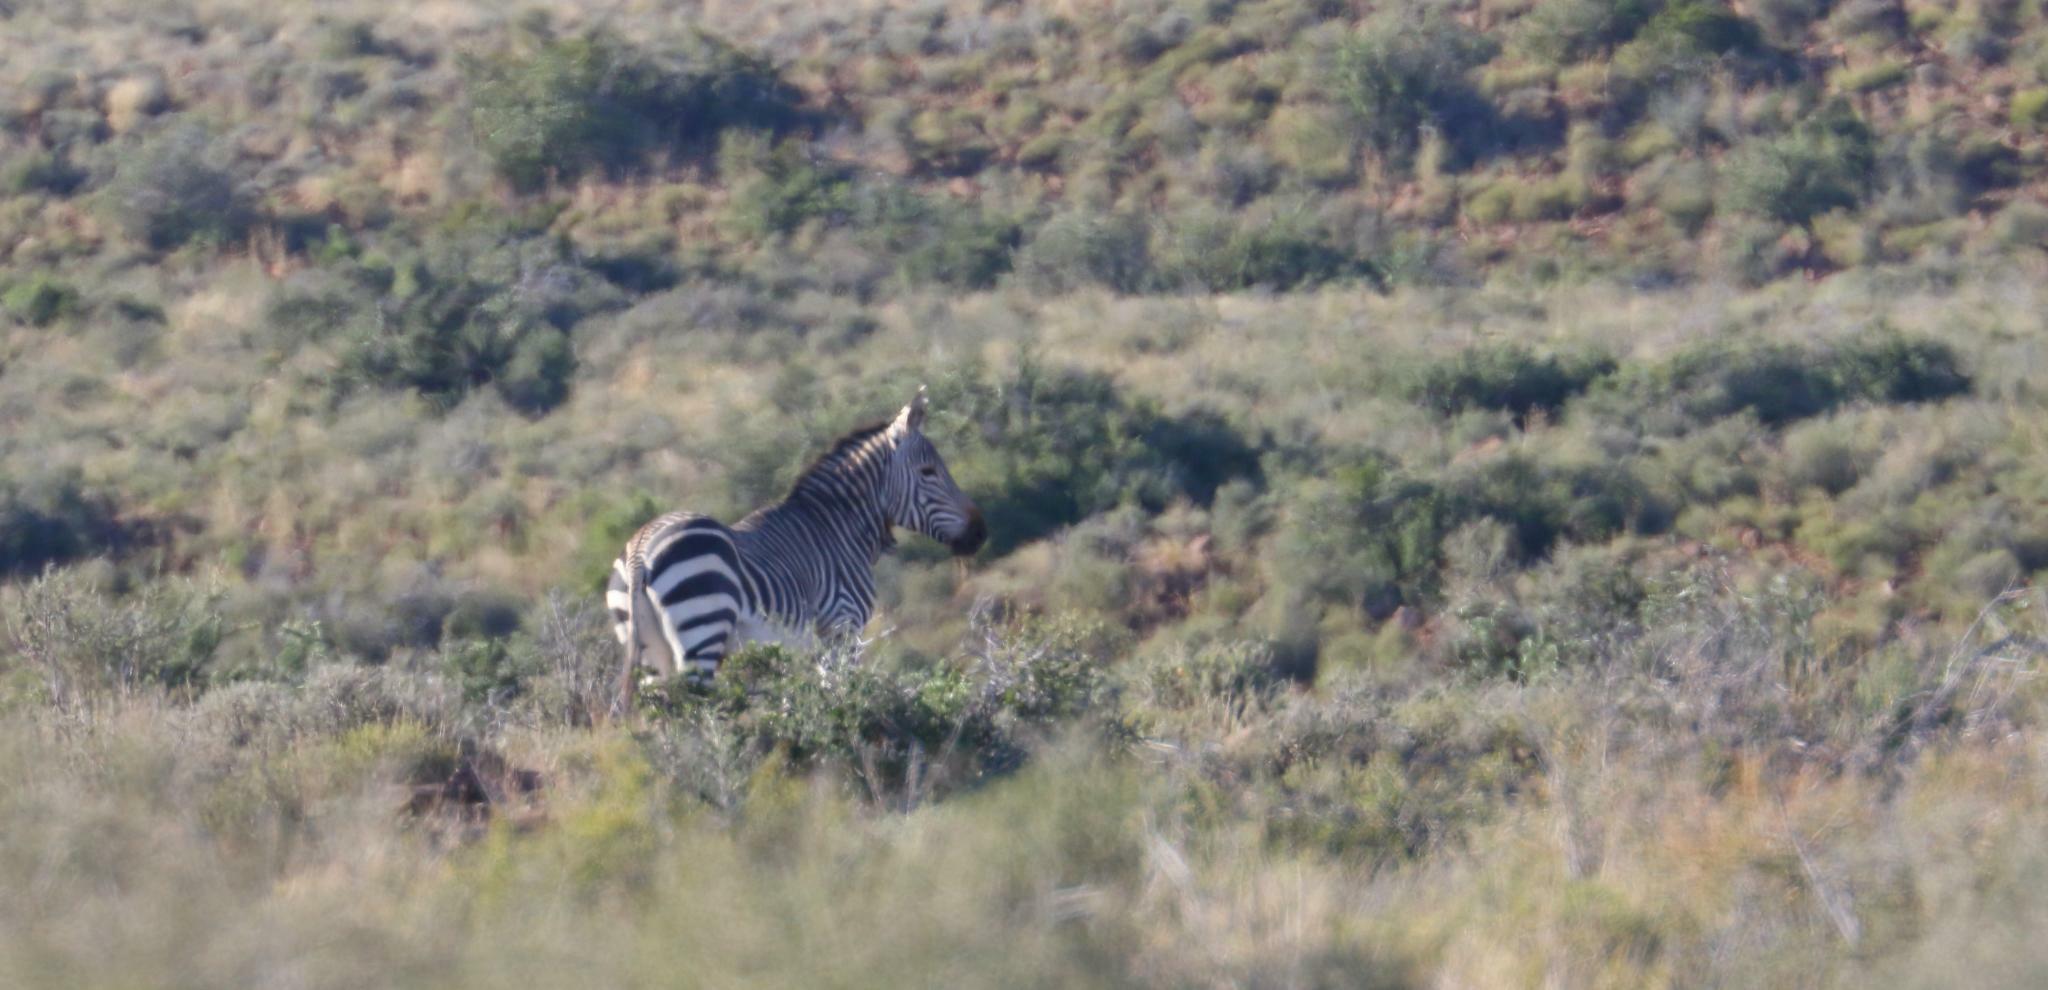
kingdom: Animalia
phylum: Chordata
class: Mammalia
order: Perissodactyla
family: Equidae
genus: Equus
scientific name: Equus zebra
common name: Mountain zebra
